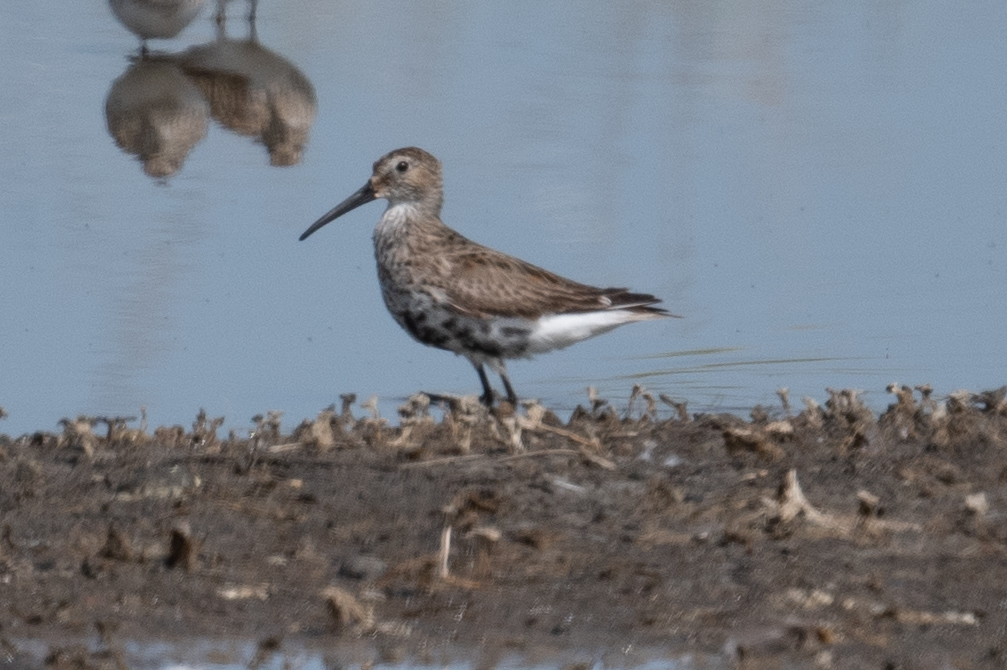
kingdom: Animalia
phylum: Chordata
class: Aves
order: Charadriiformes
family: Scolopacidae
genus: Calidris
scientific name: Calidris alpina
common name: Dunlin
